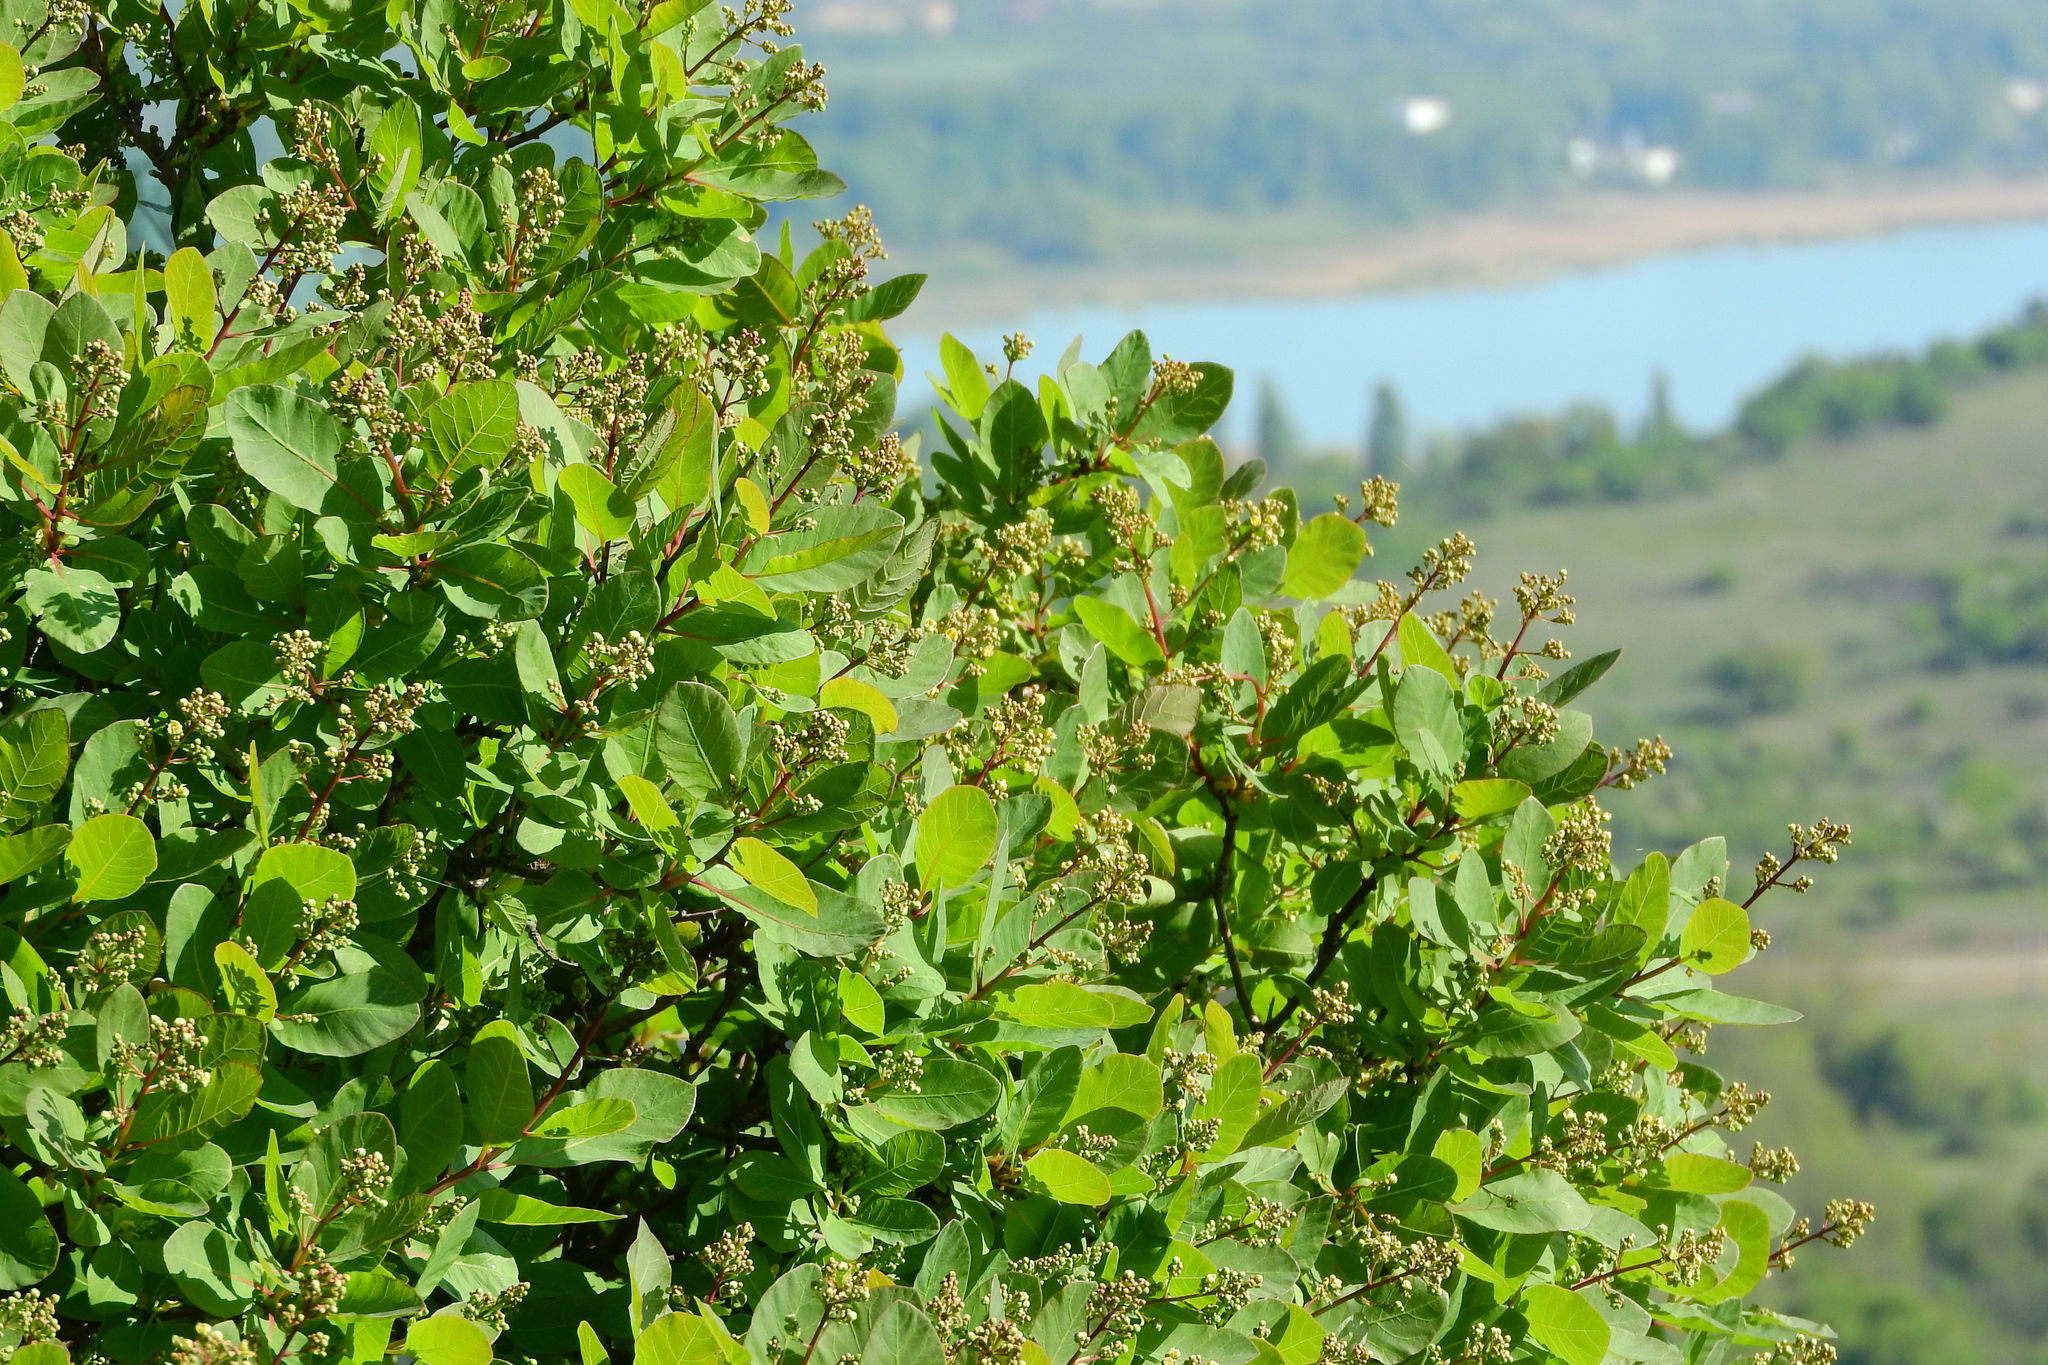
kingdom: Plantae
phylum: Tracheophyta
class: Magnoliopsida
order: Sapindales
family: Anacardiaceae
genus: Cotinus
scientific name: Cotinus coggygria
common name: Smoke-tree
